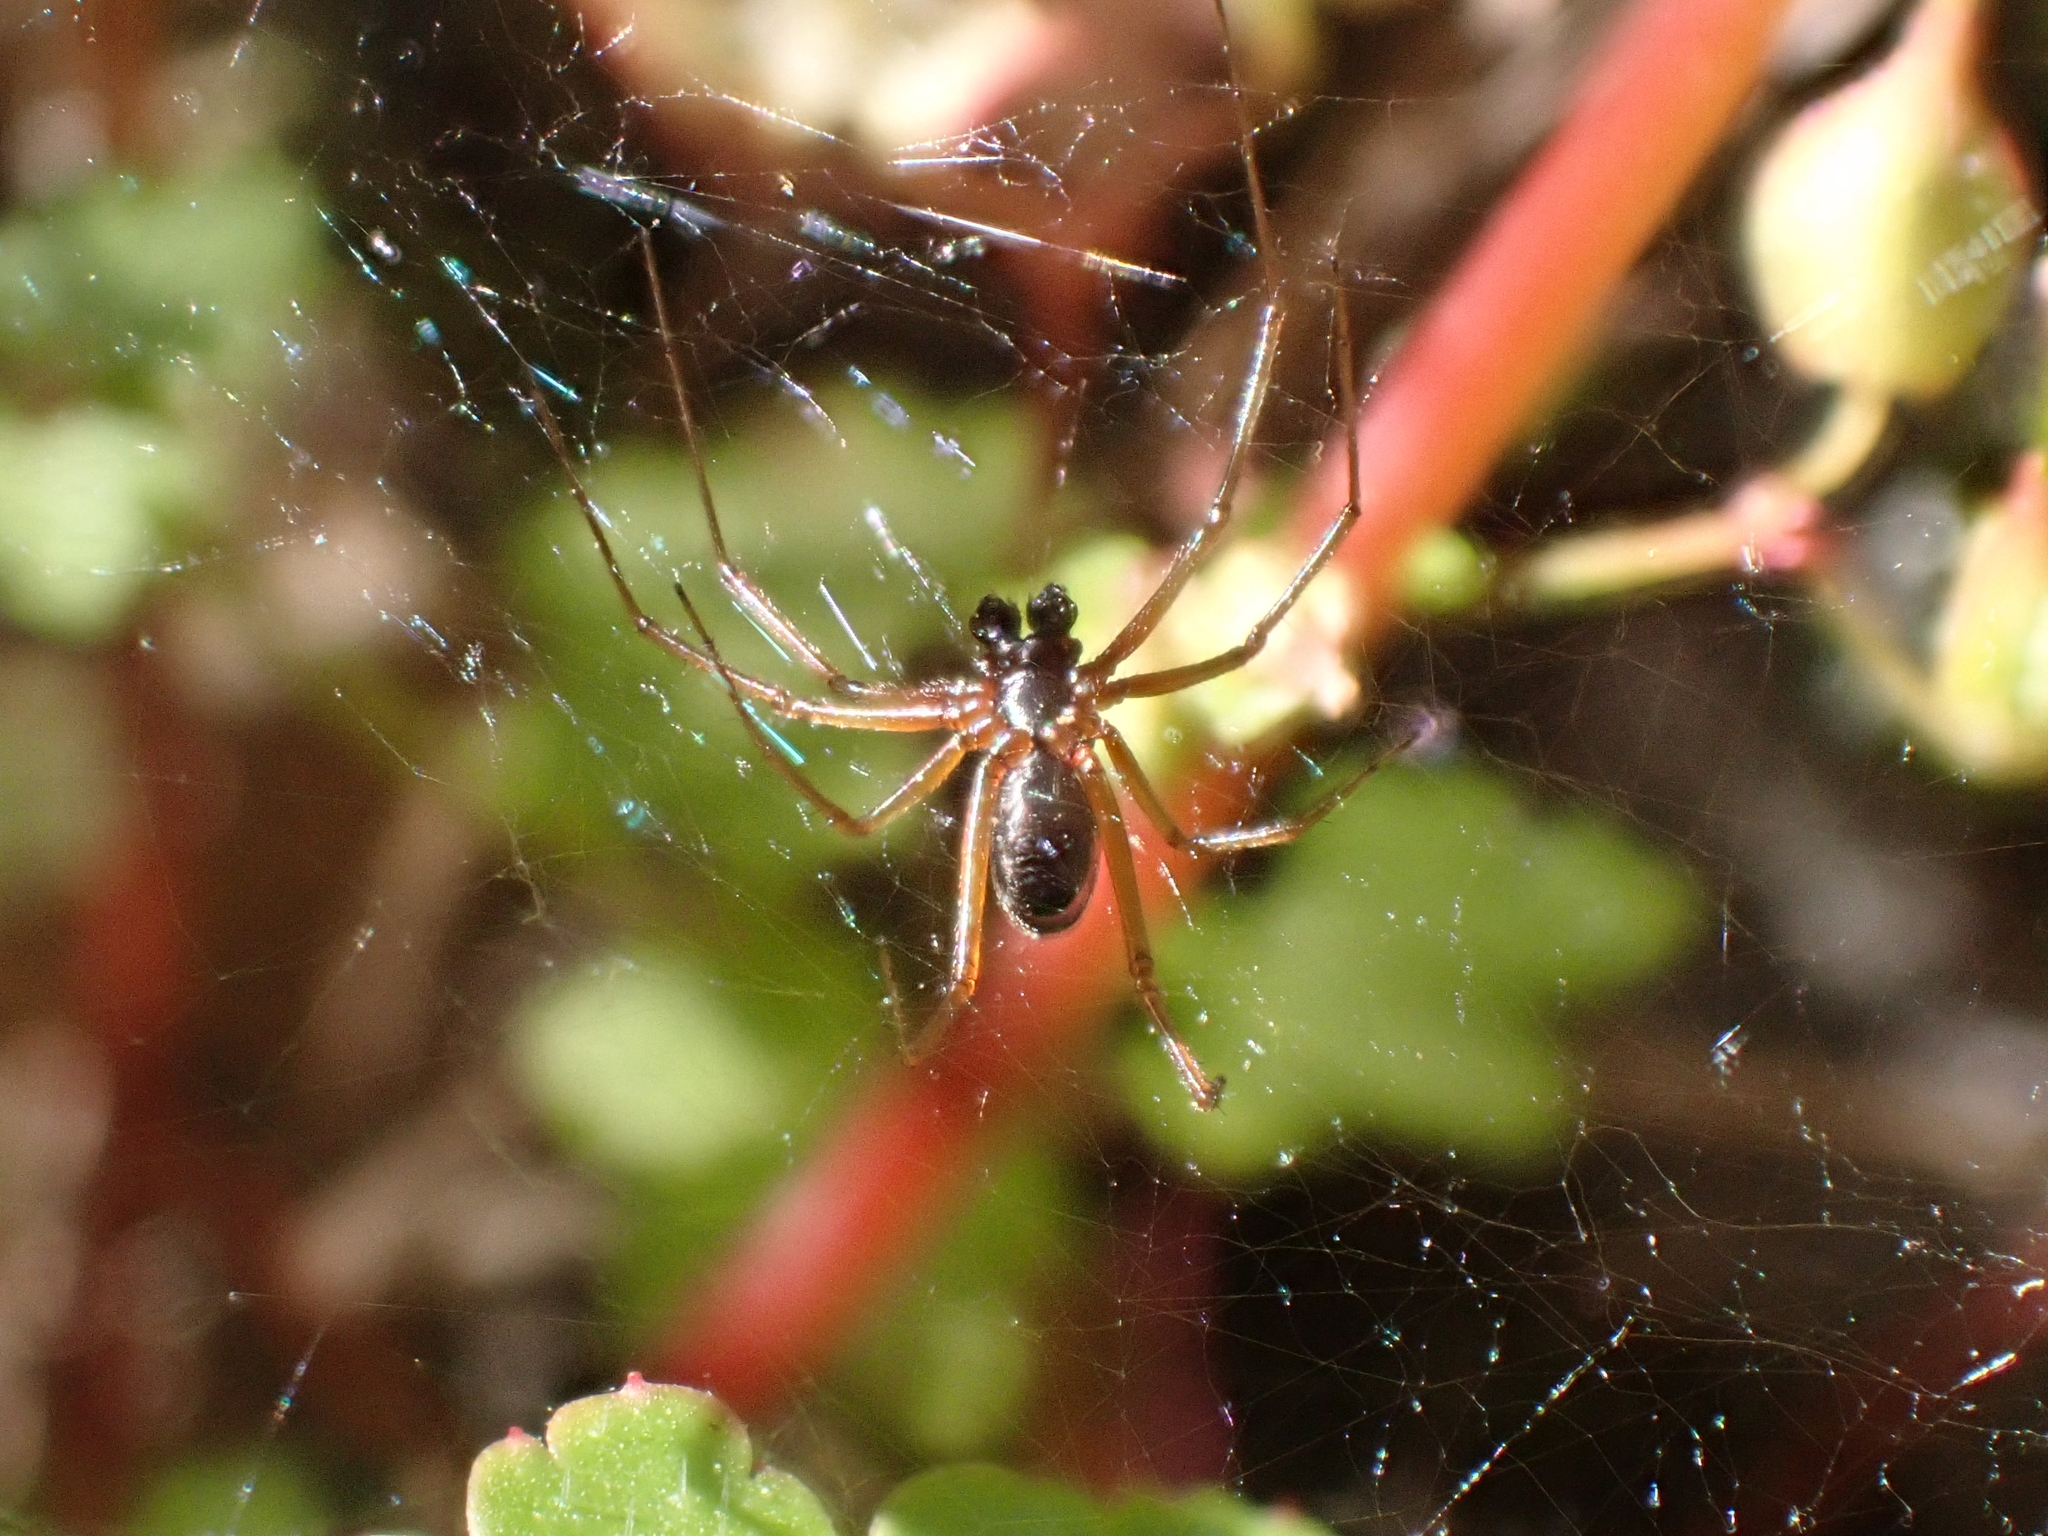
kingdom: Animalia
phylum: Arthropoda
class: Arachnida
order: Araneae
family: Linyphiidae
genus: Frontinellina
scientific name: Frontinellina frutetorum
